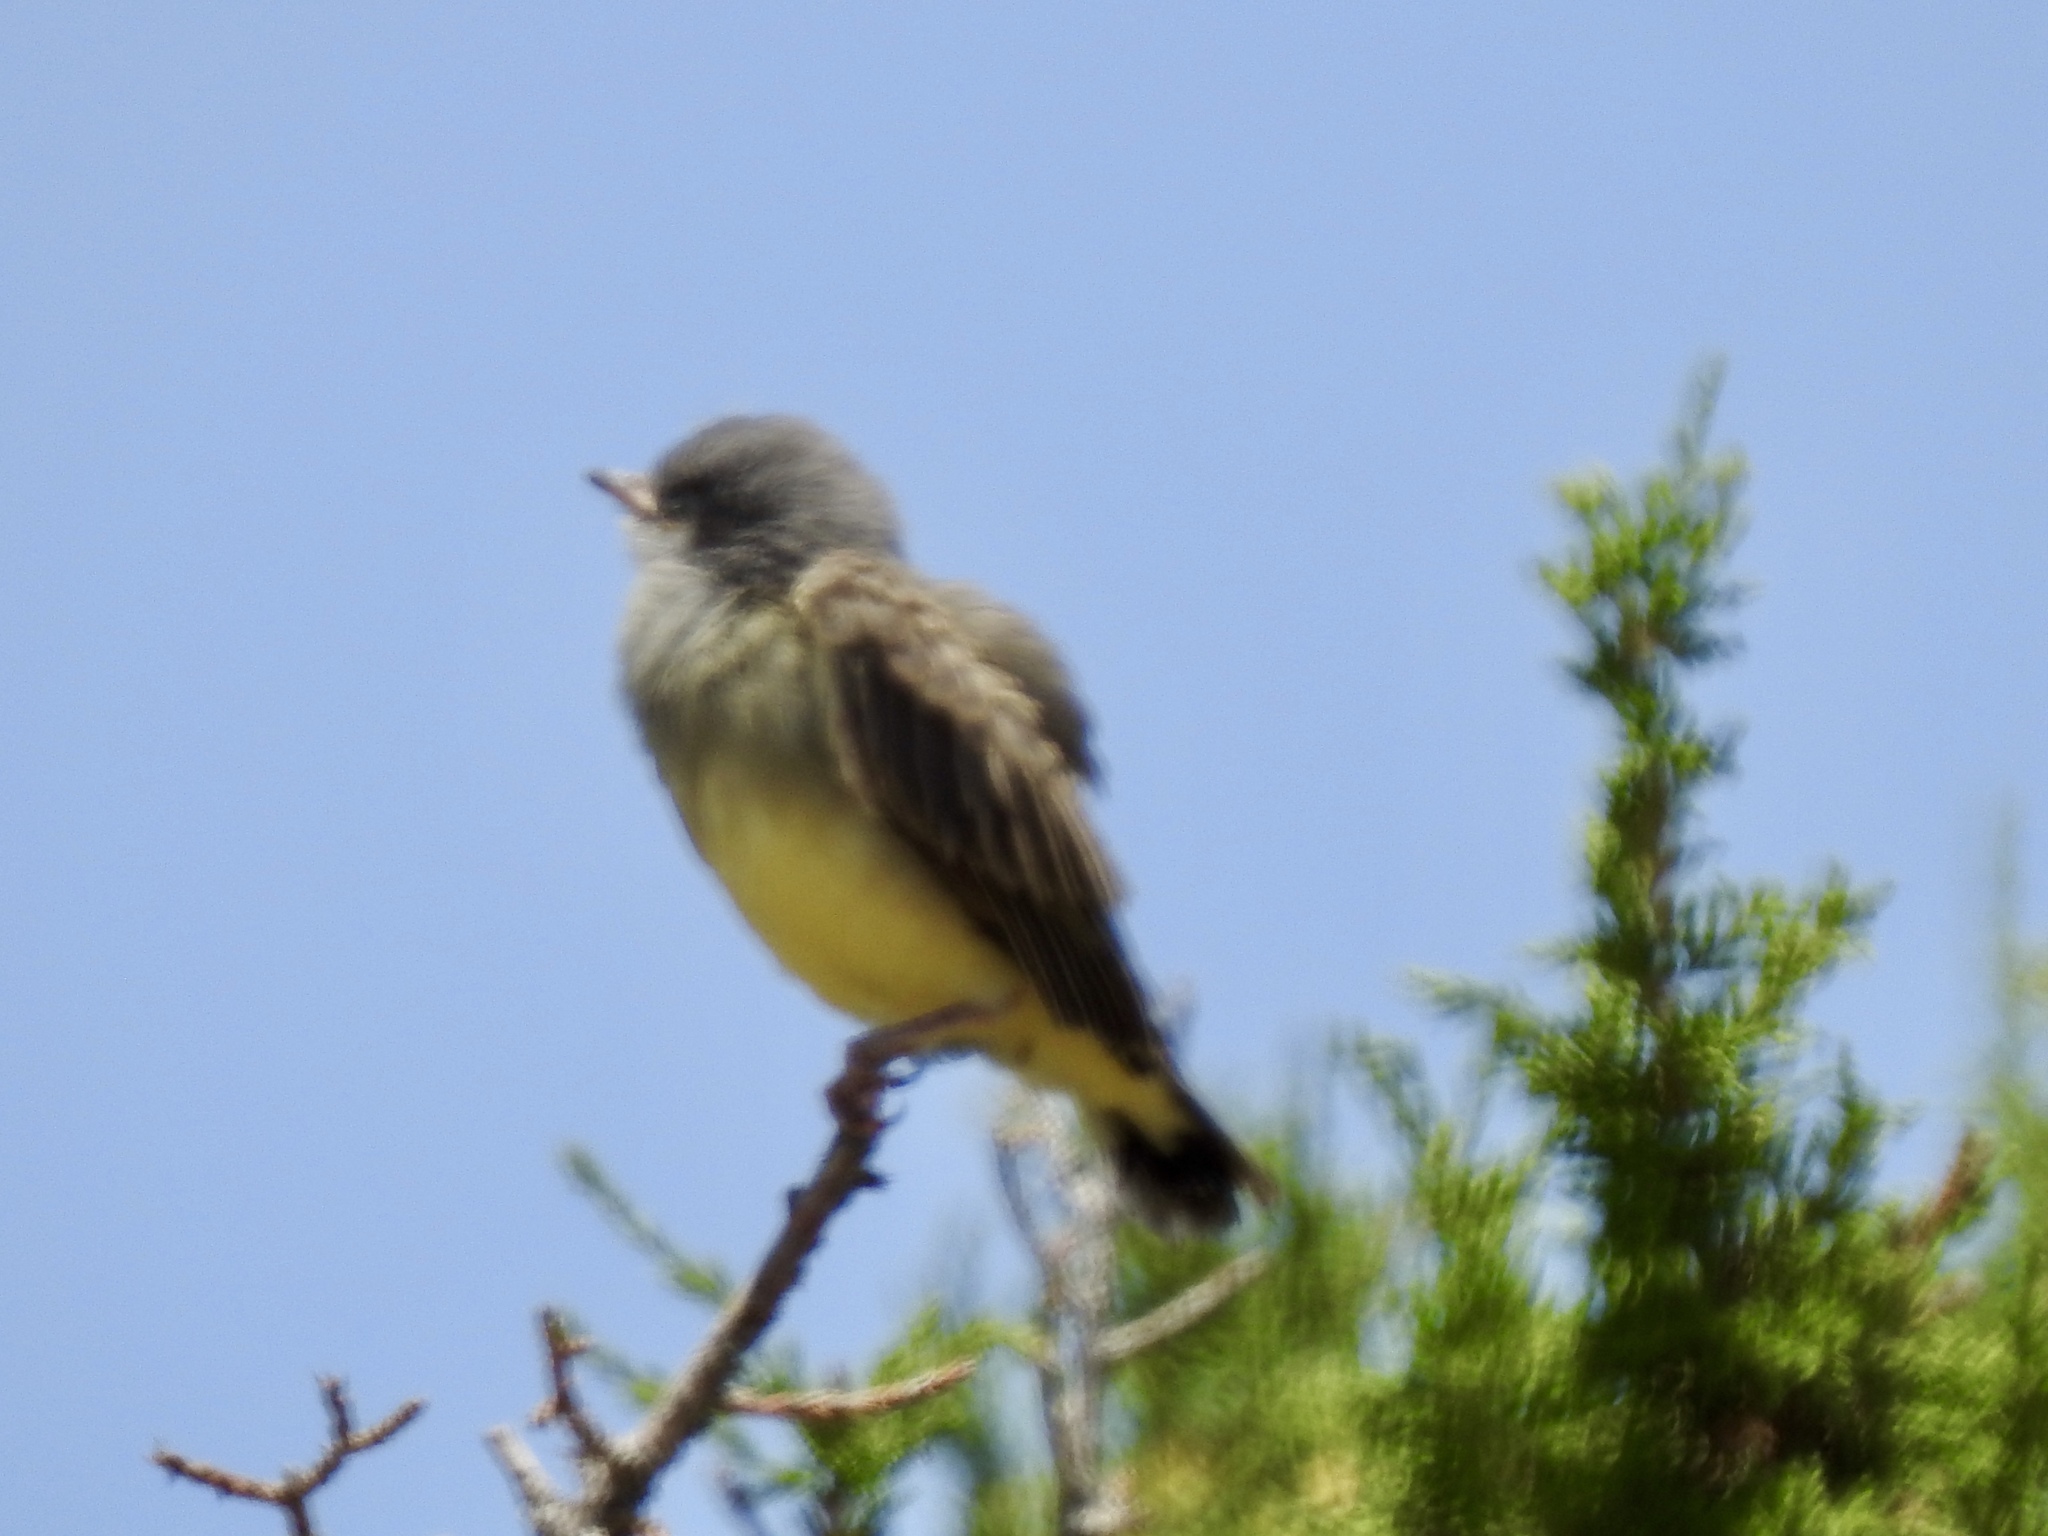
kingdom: Animalia
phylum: Chordata
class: Aves
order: Passeriformes
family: Tyrannidae
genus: Tyrannus
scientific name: Tyrannus vociferans
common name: Cassin's kingbird
